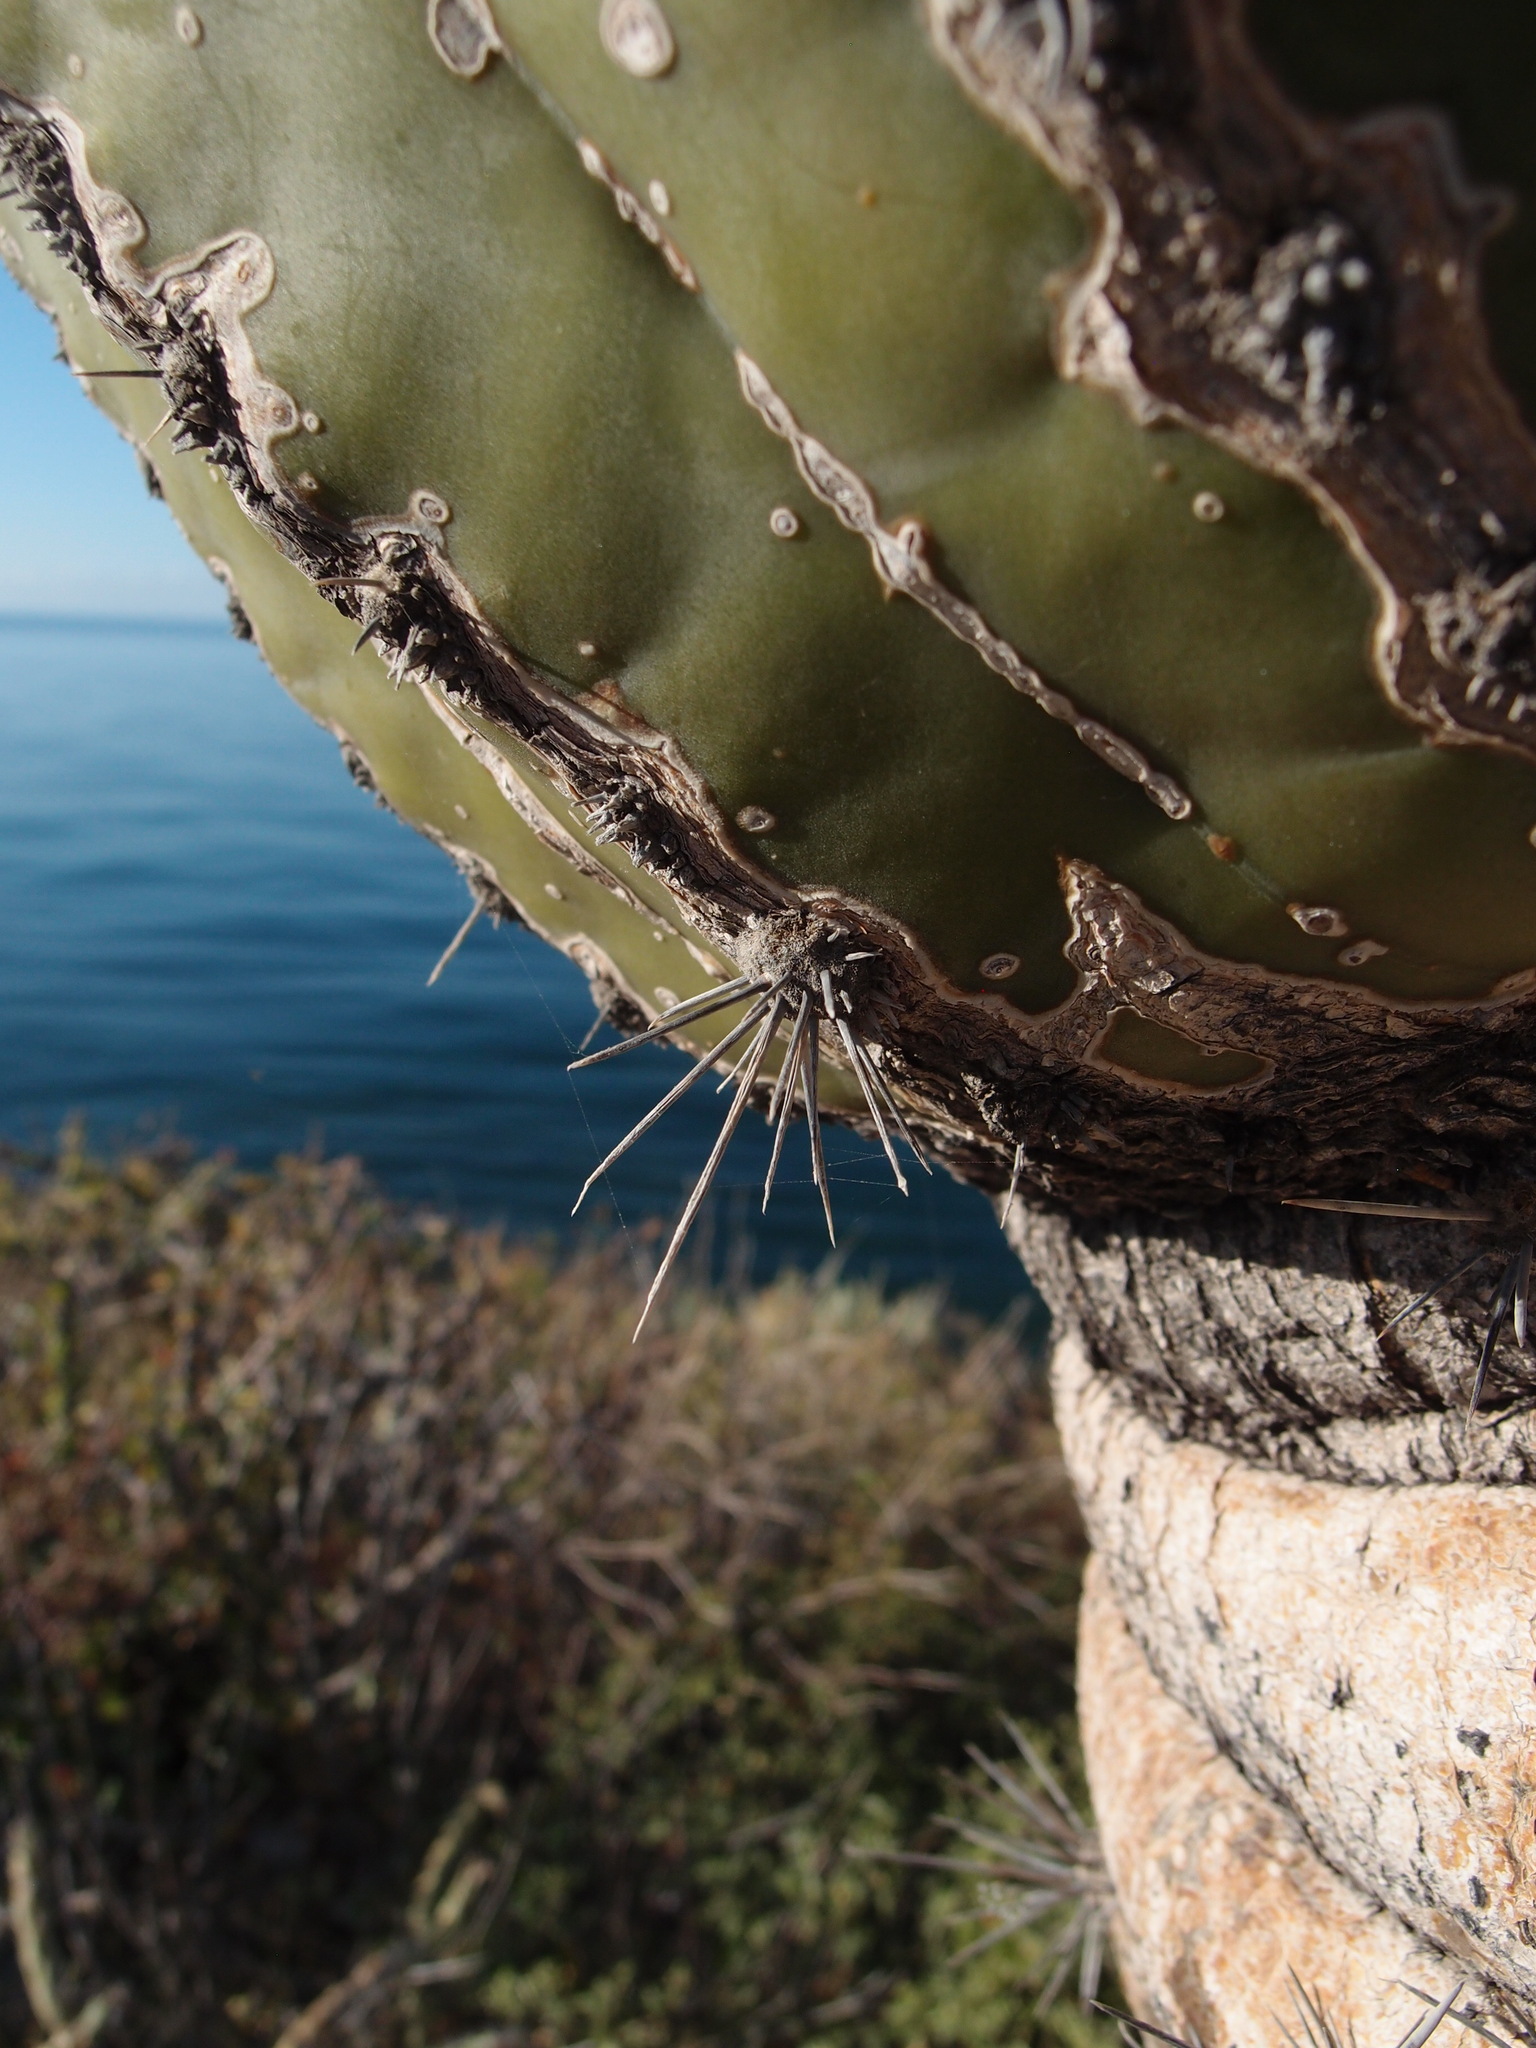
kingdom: Plantae
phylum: Tracheophyta
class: Magnoliopsida
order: Caryophyllales
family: Cactaceae
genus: Pachycereus
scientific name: Pachycereus pringlei
